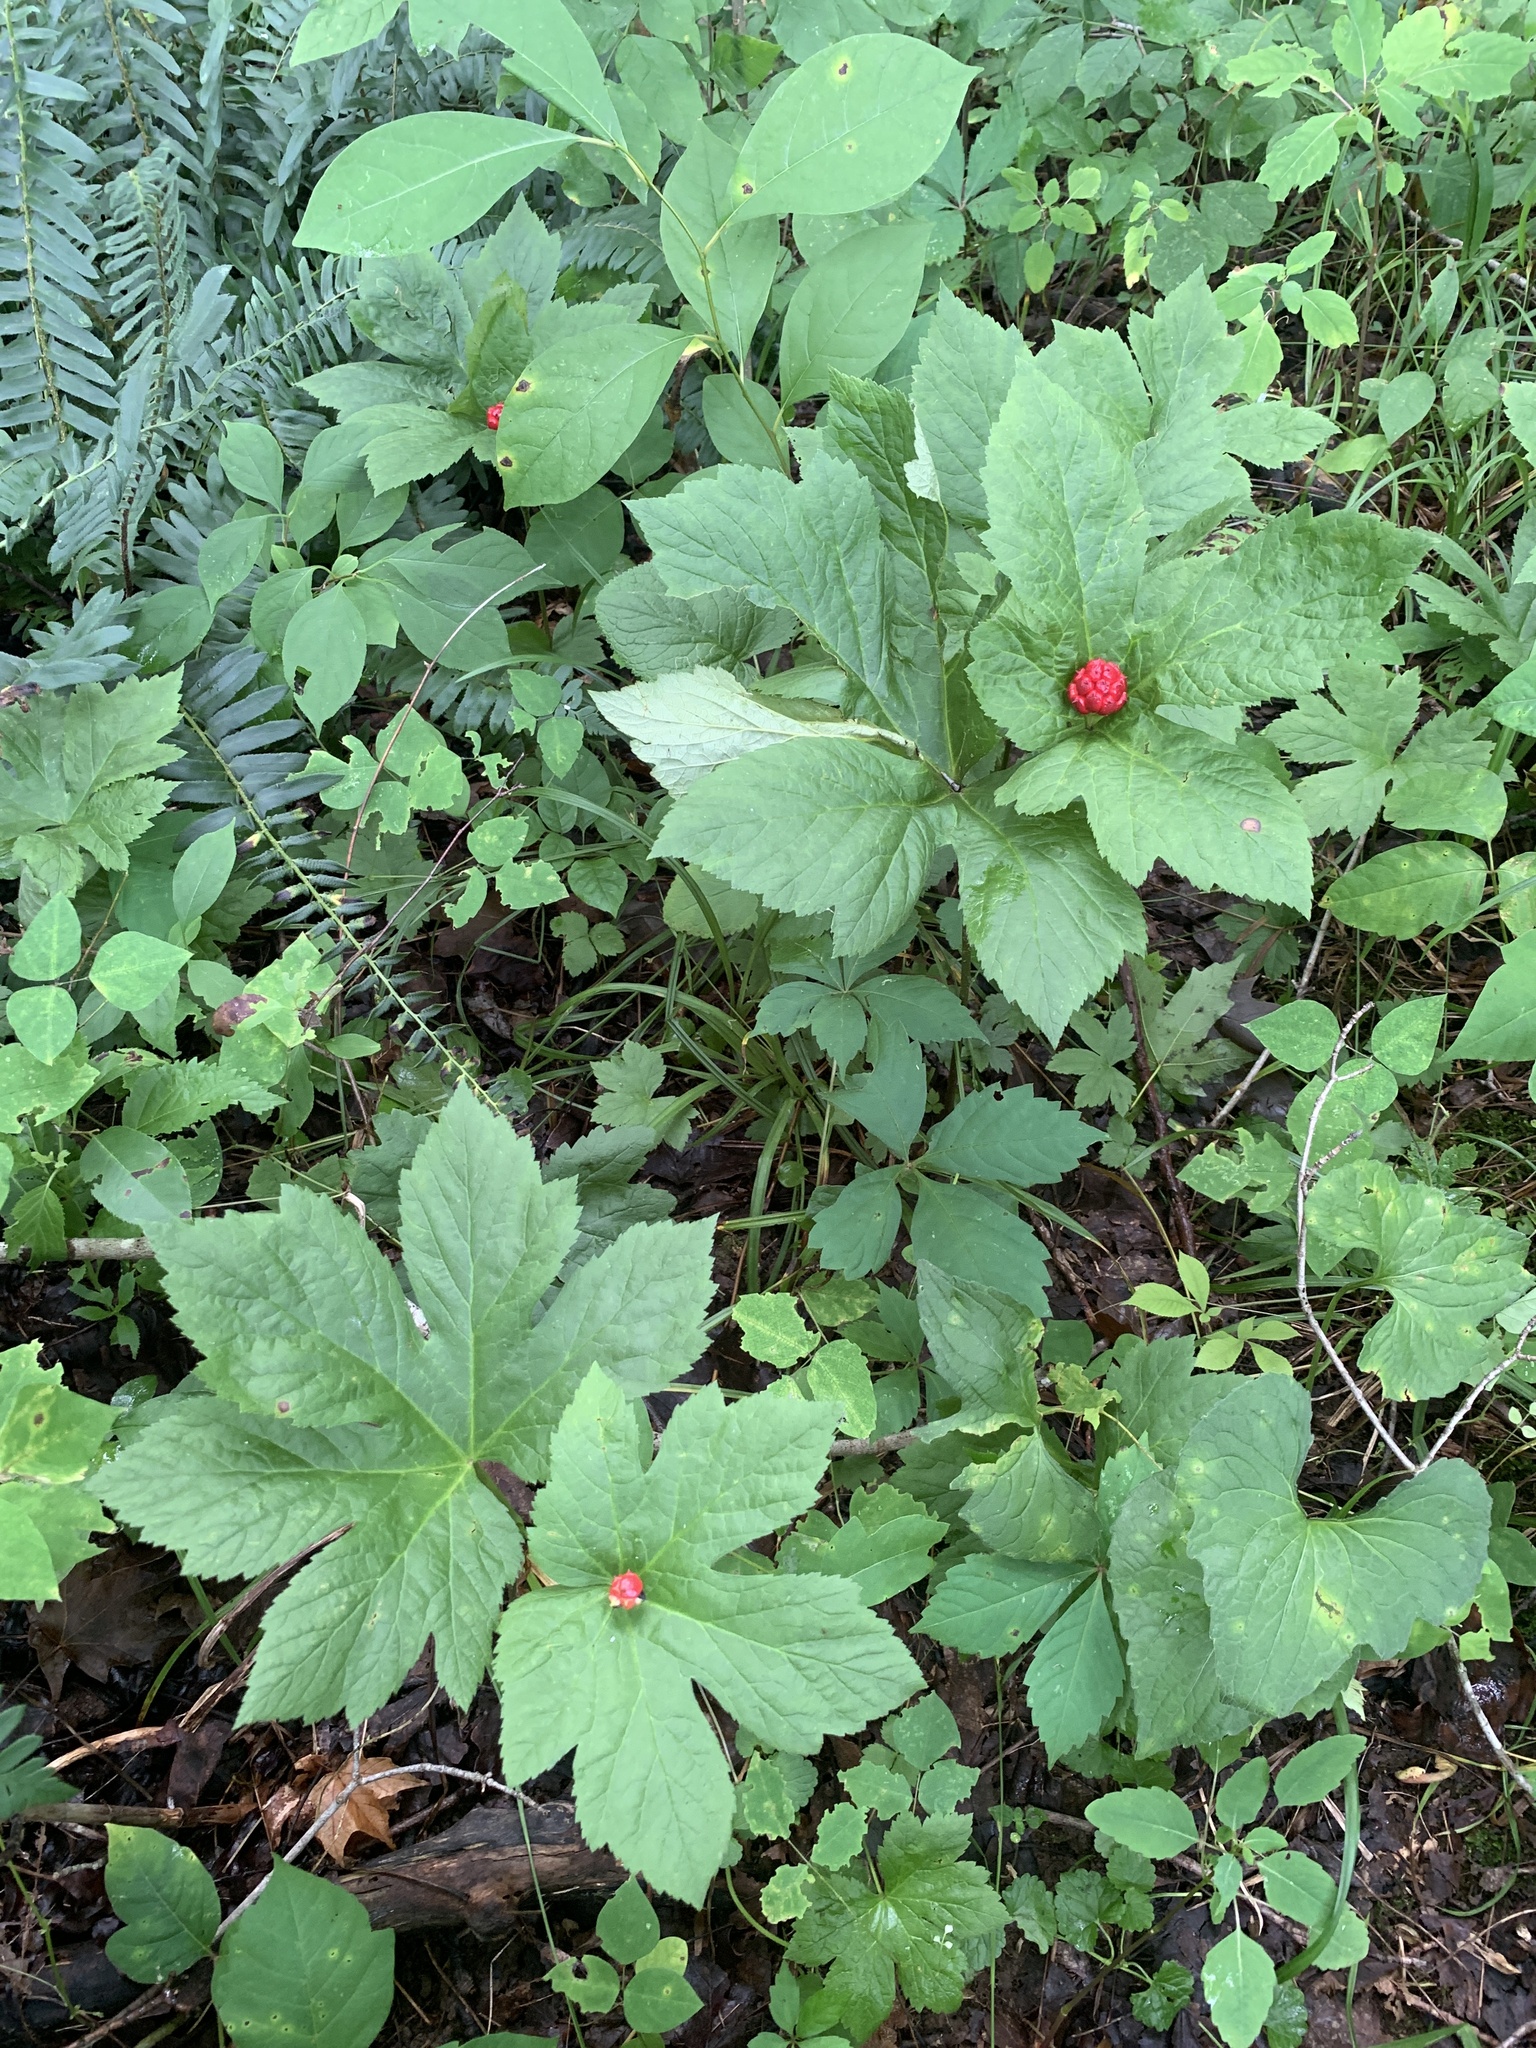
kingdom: Plantae
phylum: Tracheophyta
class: Magnoliopsida
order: Ranunculales
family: Ranunculaceae
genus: Hydrastis
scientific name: Hydrastis canadensis
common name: Goldenseal
